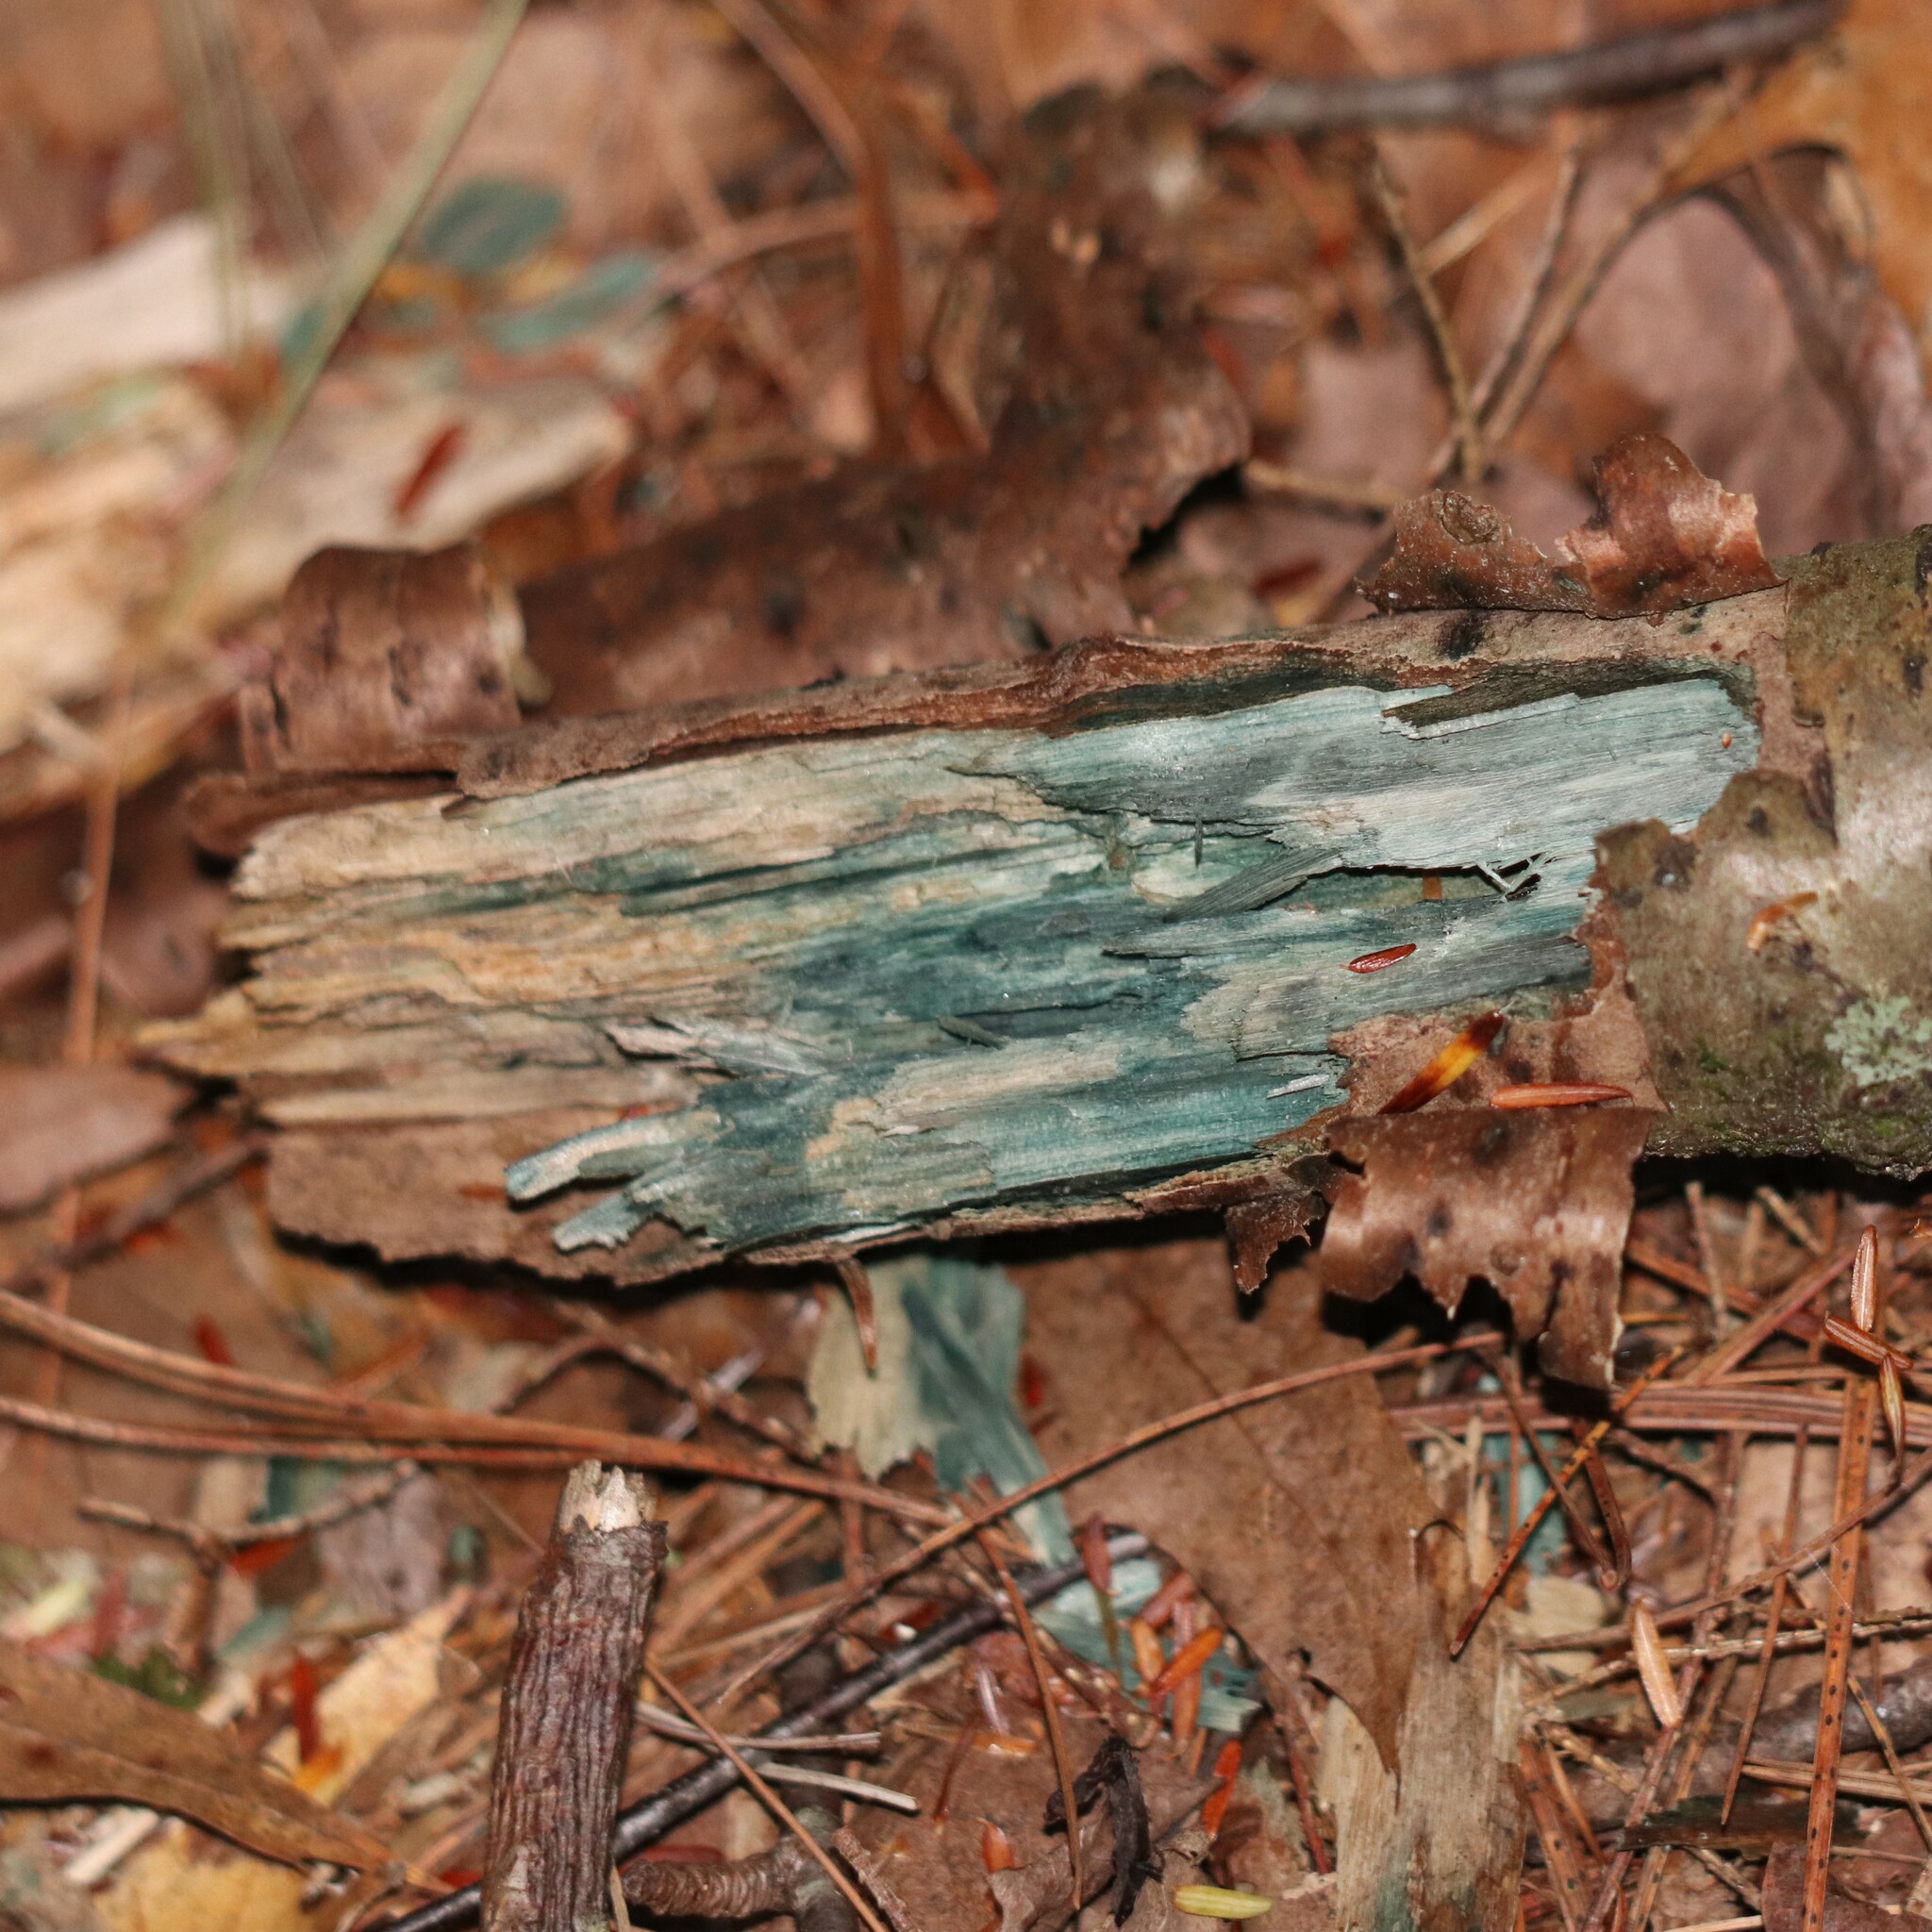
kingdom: Fungi
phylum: Ascomycota
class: Leotiomycetes
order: Helotiales
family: Chlorociboriaceae
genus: Chlorociboria
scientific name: Chlorociboria
